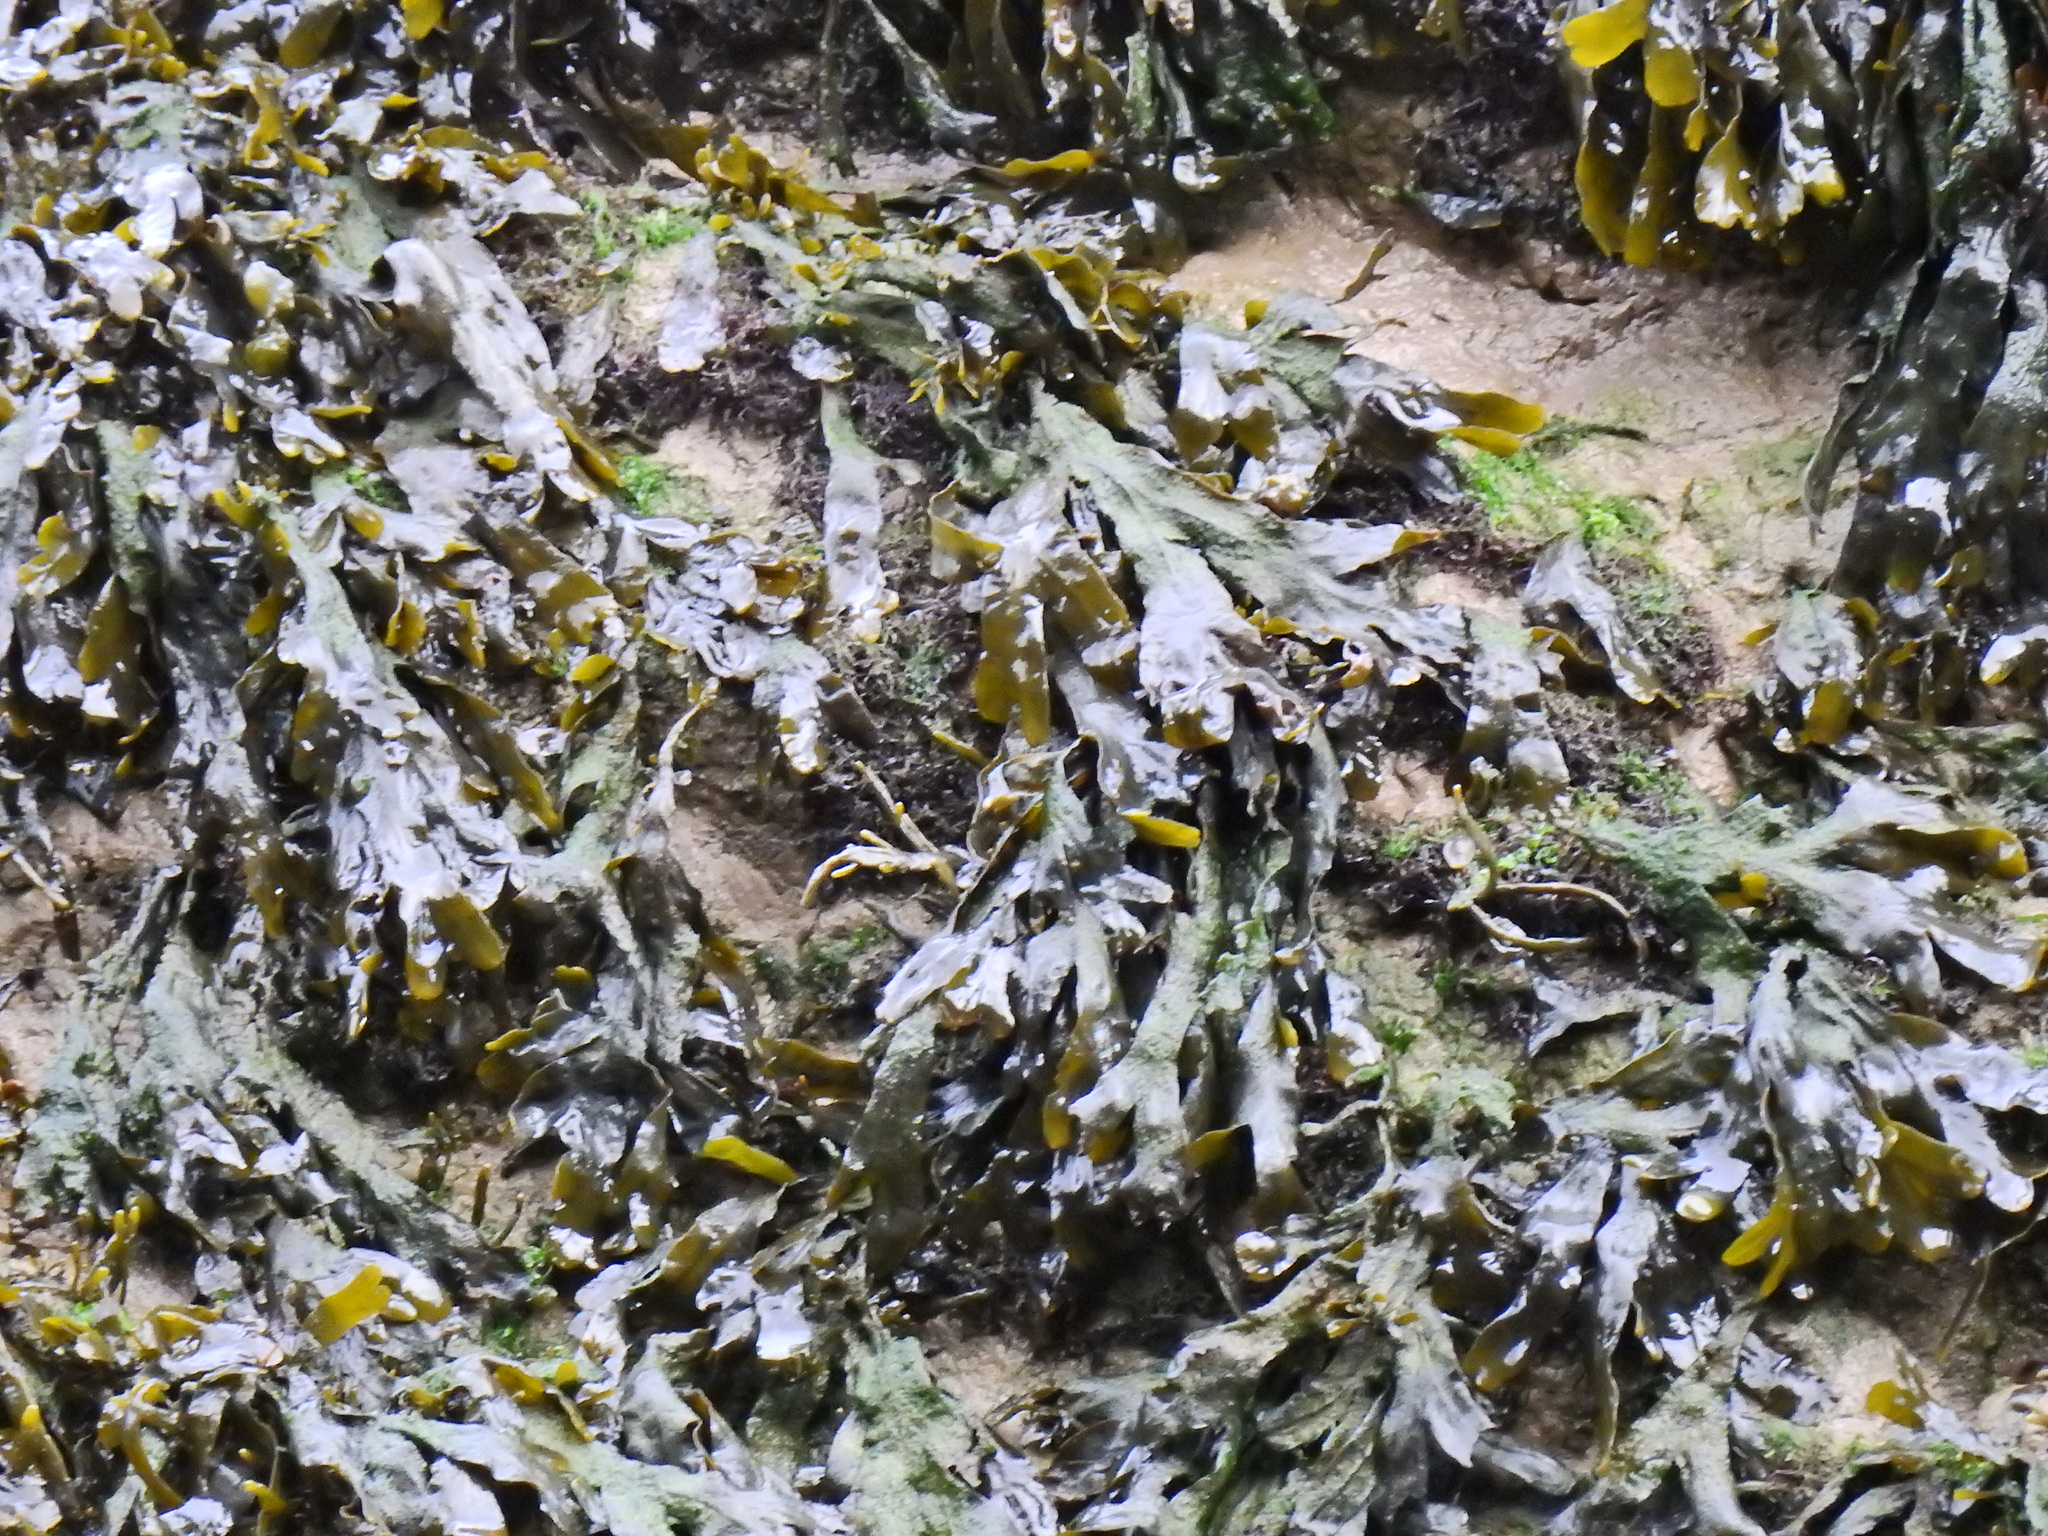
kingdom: Chromista
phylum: Ochrophyta
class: Phaeophyceae
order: Fucales
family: Fucaceae
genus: Fucus
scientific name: Fucus spiralis
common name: Spiral wrack
